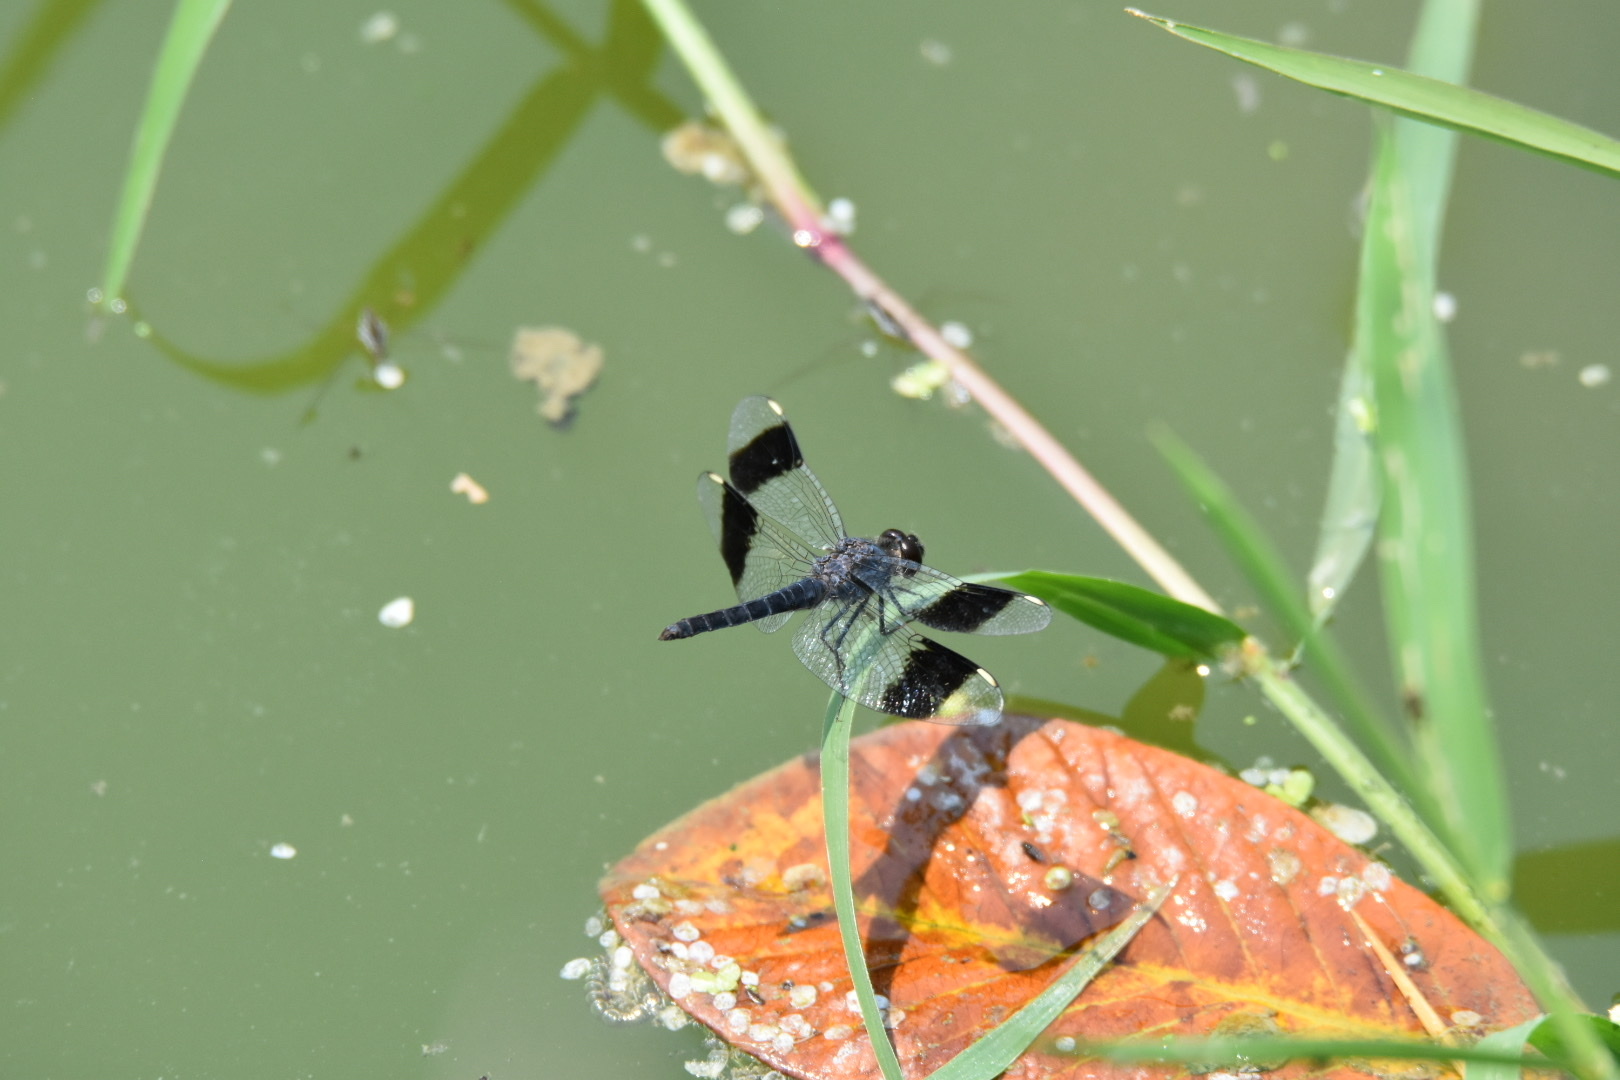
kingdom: Animalia
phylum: Arthropoda
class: Insecta
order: Odonata
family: Libellulidae
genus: Brachythemis
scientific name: Brachythemis leucosticta
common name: Banded groundling
